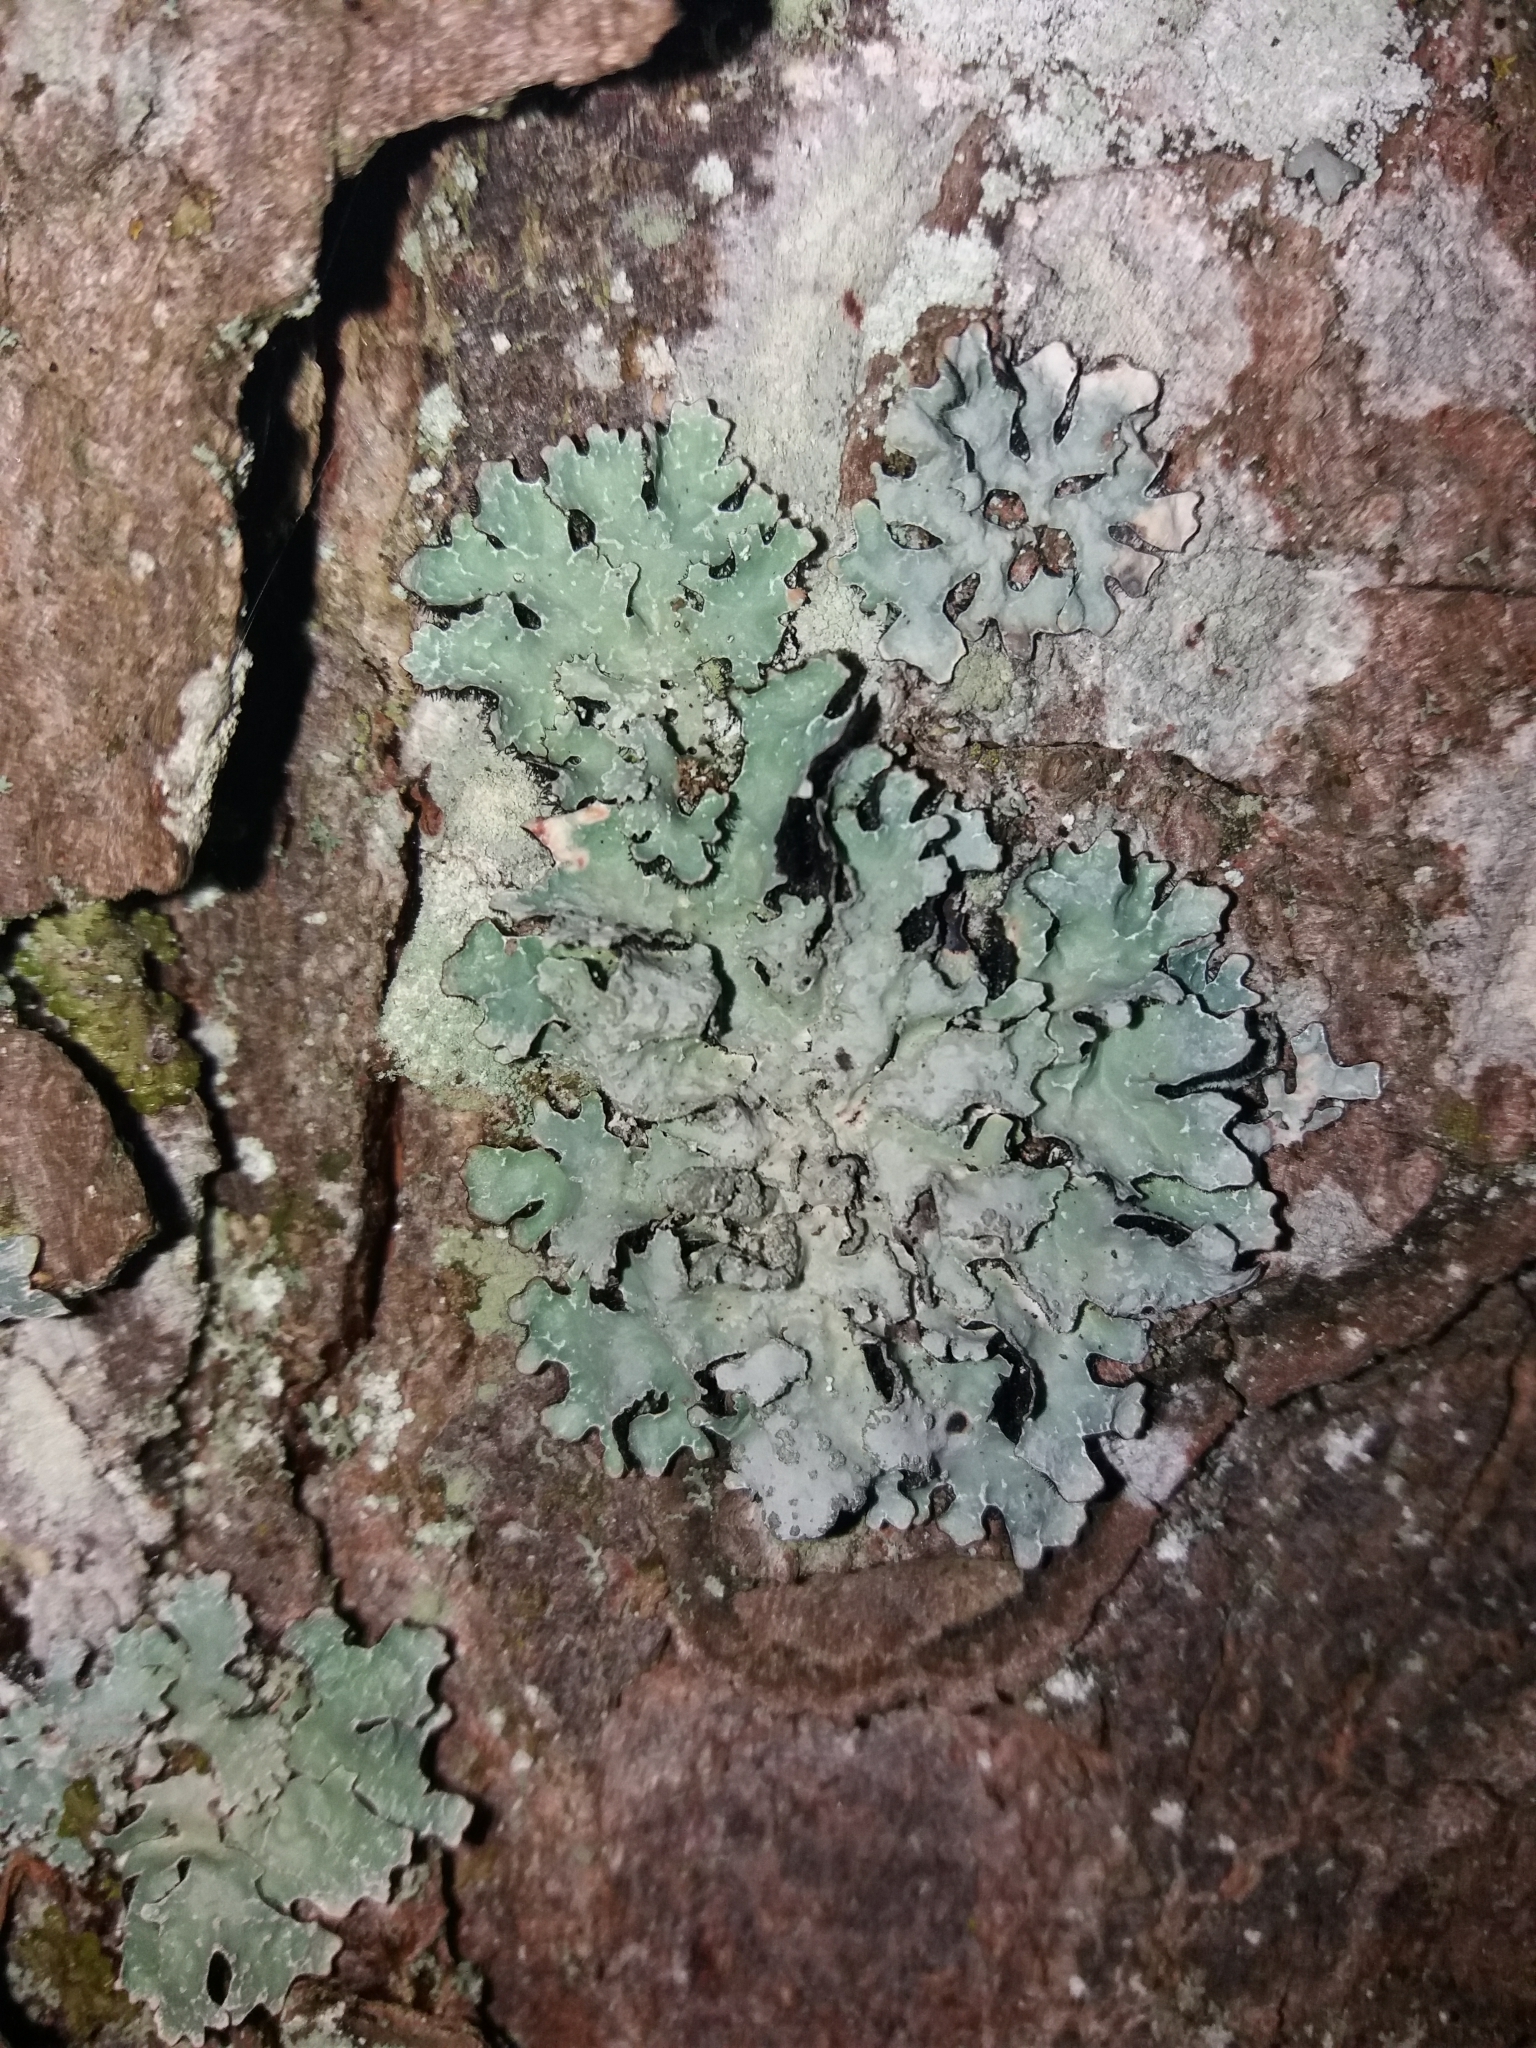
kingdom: Fungi
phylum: Ascomycota
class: Lecanoromycetes
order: Lecanorales
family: Parmeliaceae
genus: Parmelia
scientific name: Parmelia sulcata
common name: Netted shield lichen
